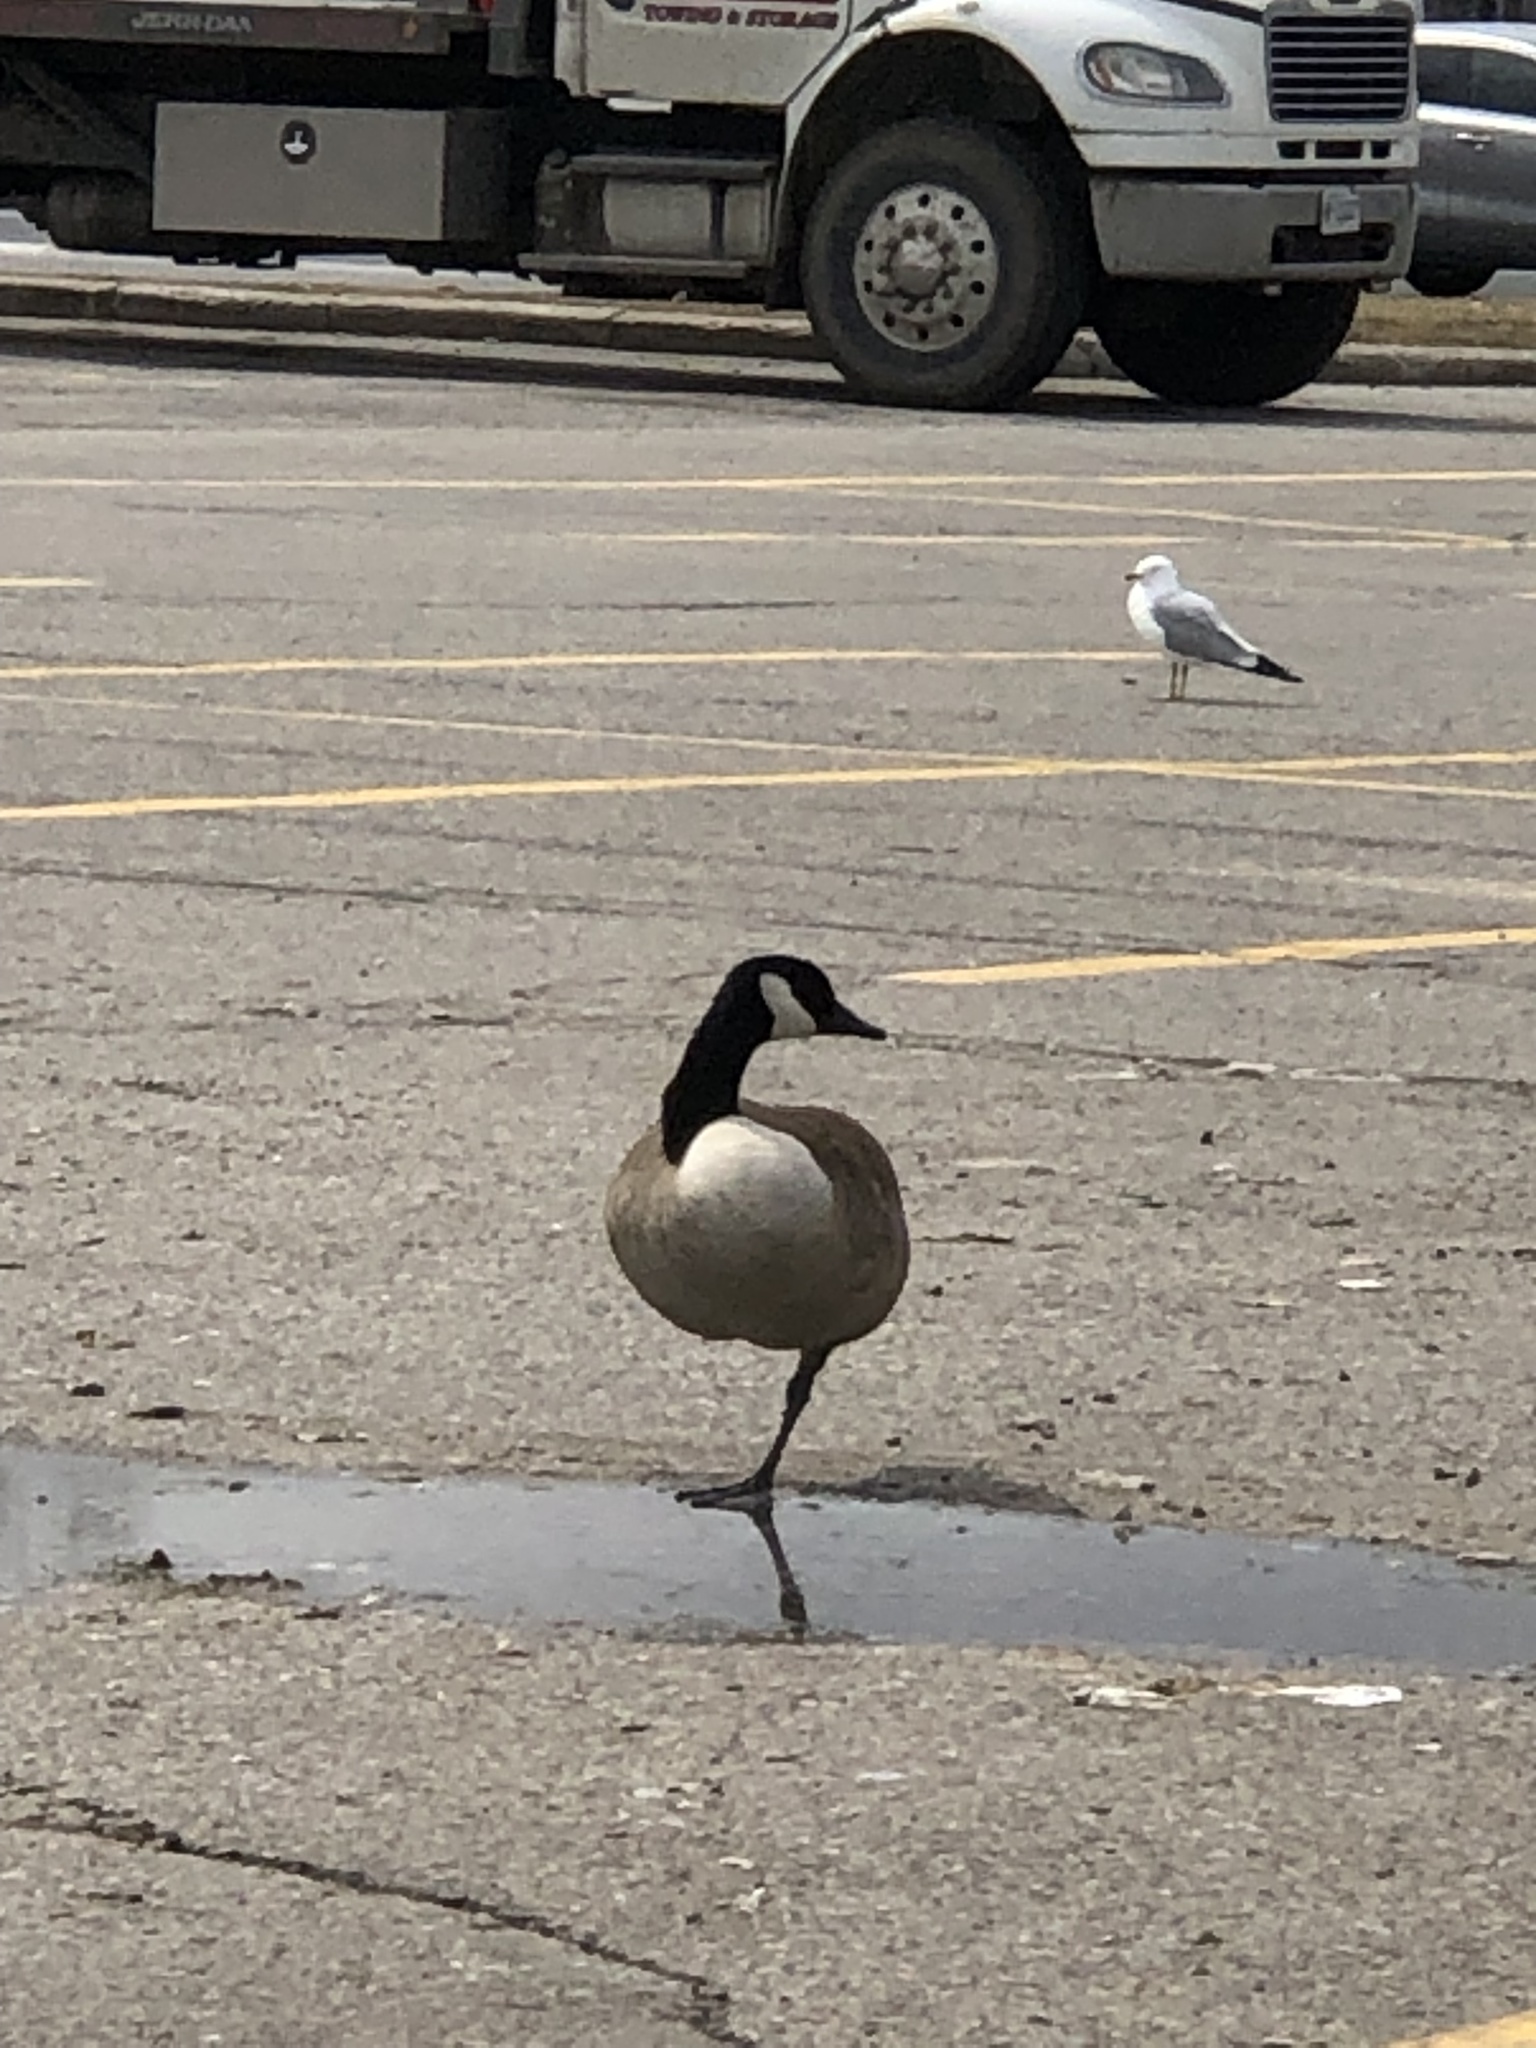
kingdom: Animalia
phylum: Chordata
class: Aves
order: Anseriformes
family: Anatidae
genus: Branta
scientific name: Branta canadensis
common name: Canada goose
